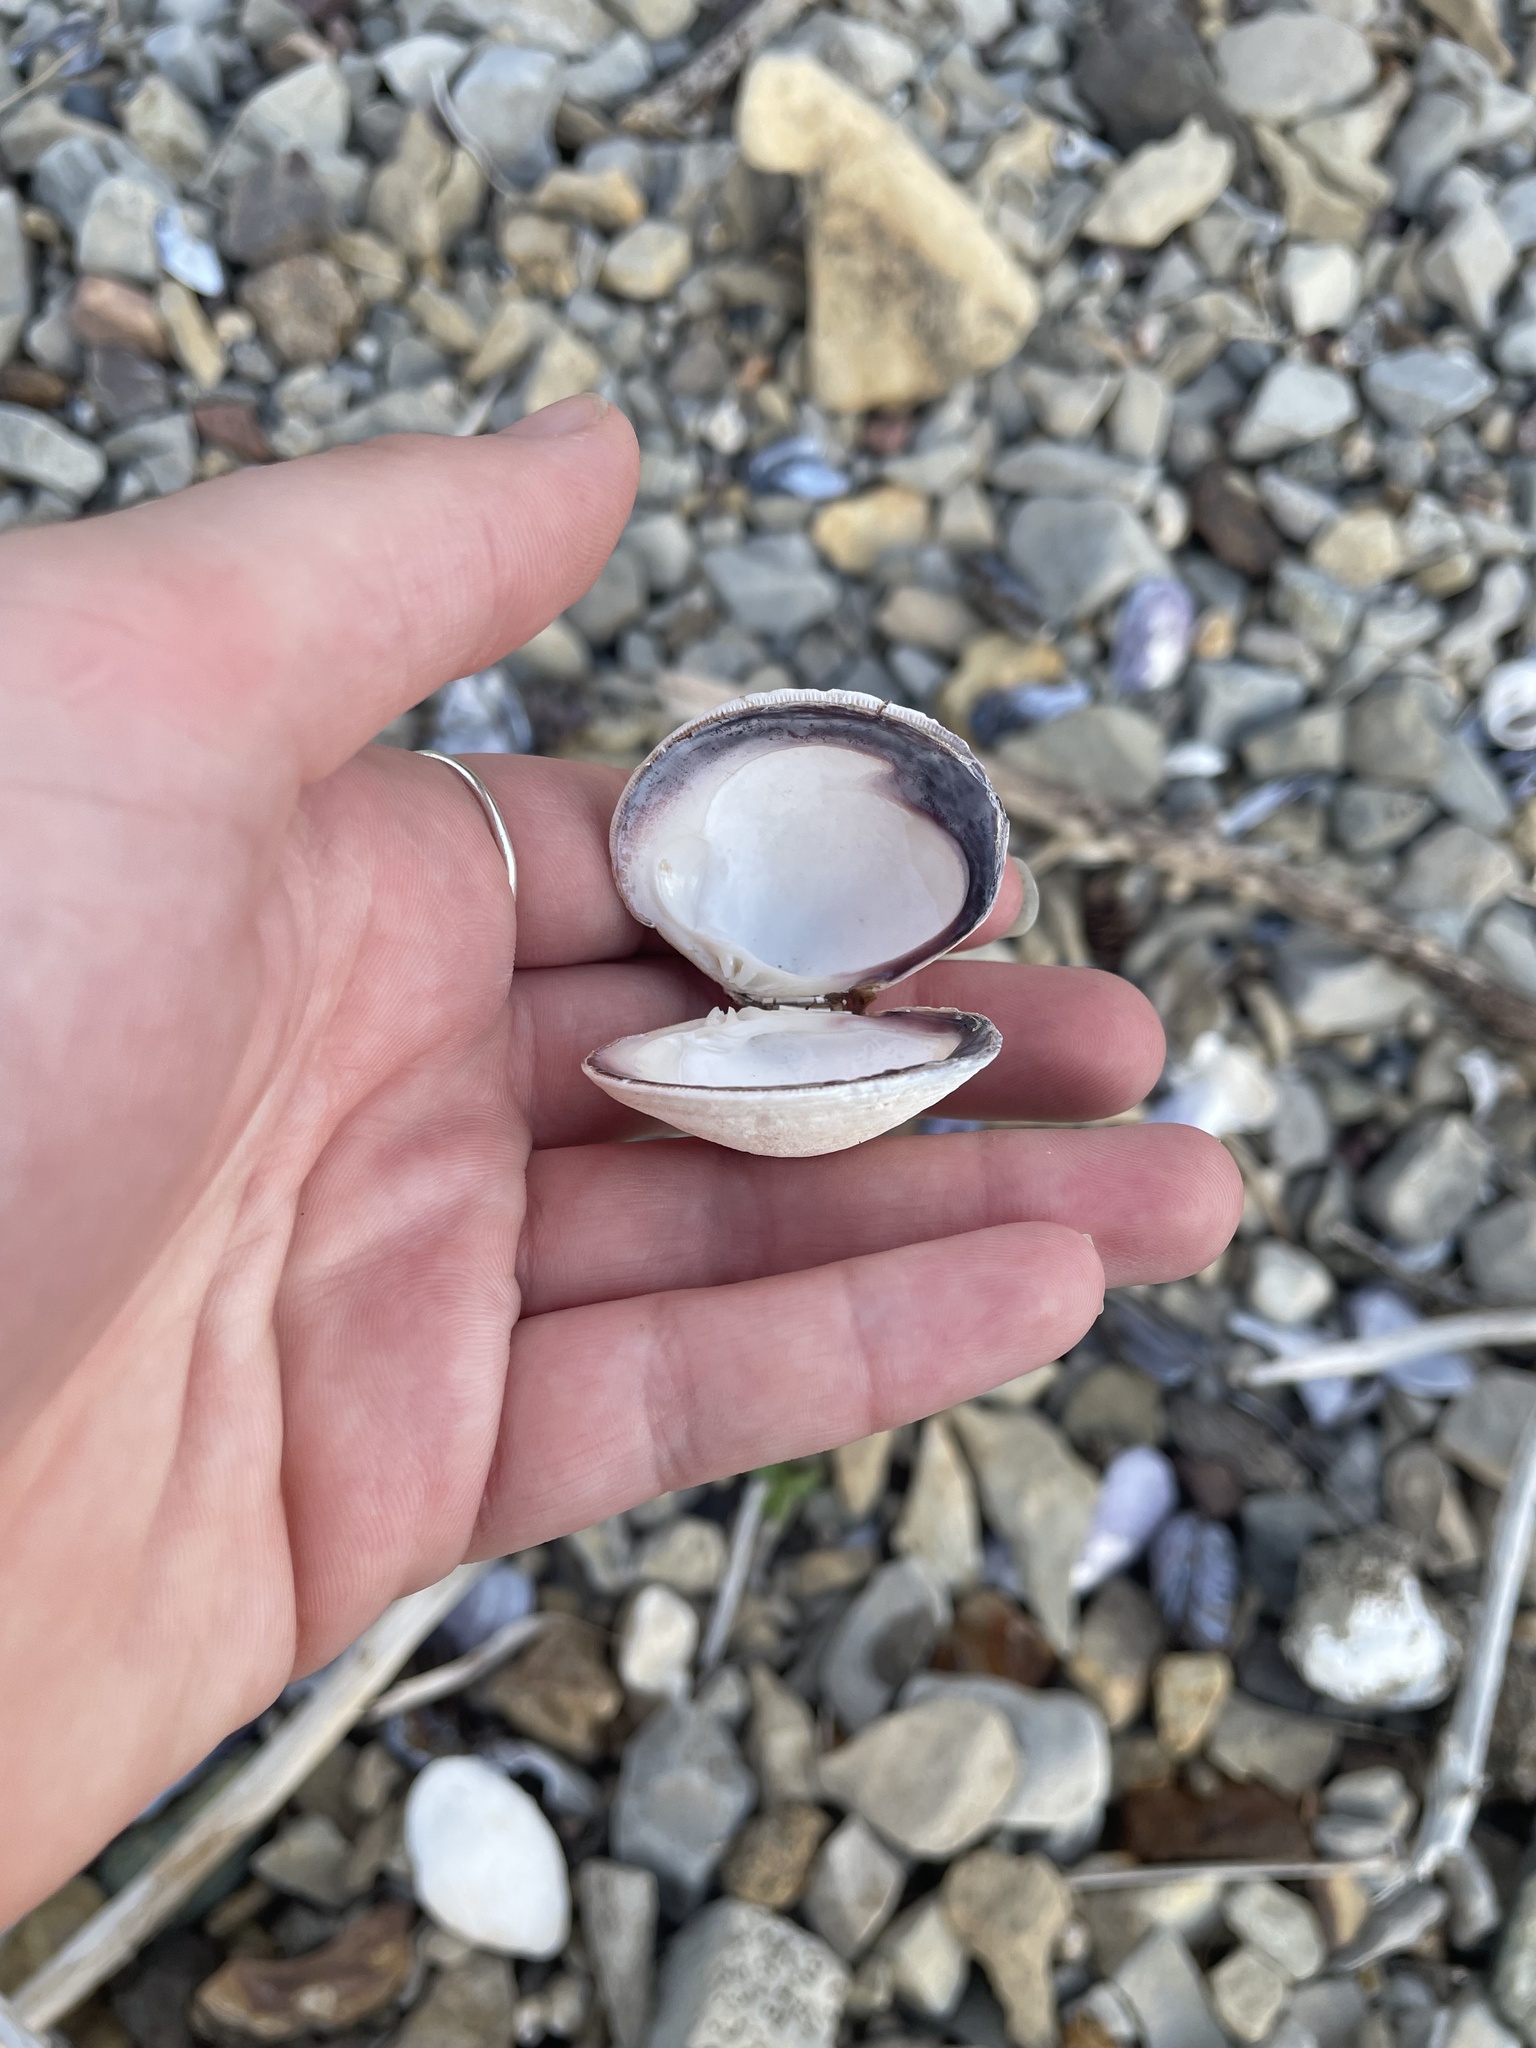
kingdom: Animalia
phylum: Mollusca
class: Bivalvia
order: Venerida
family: Veneridae
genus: Mercenaria
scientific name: Mercenaria mercenaria
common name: American hard-shelled clam
